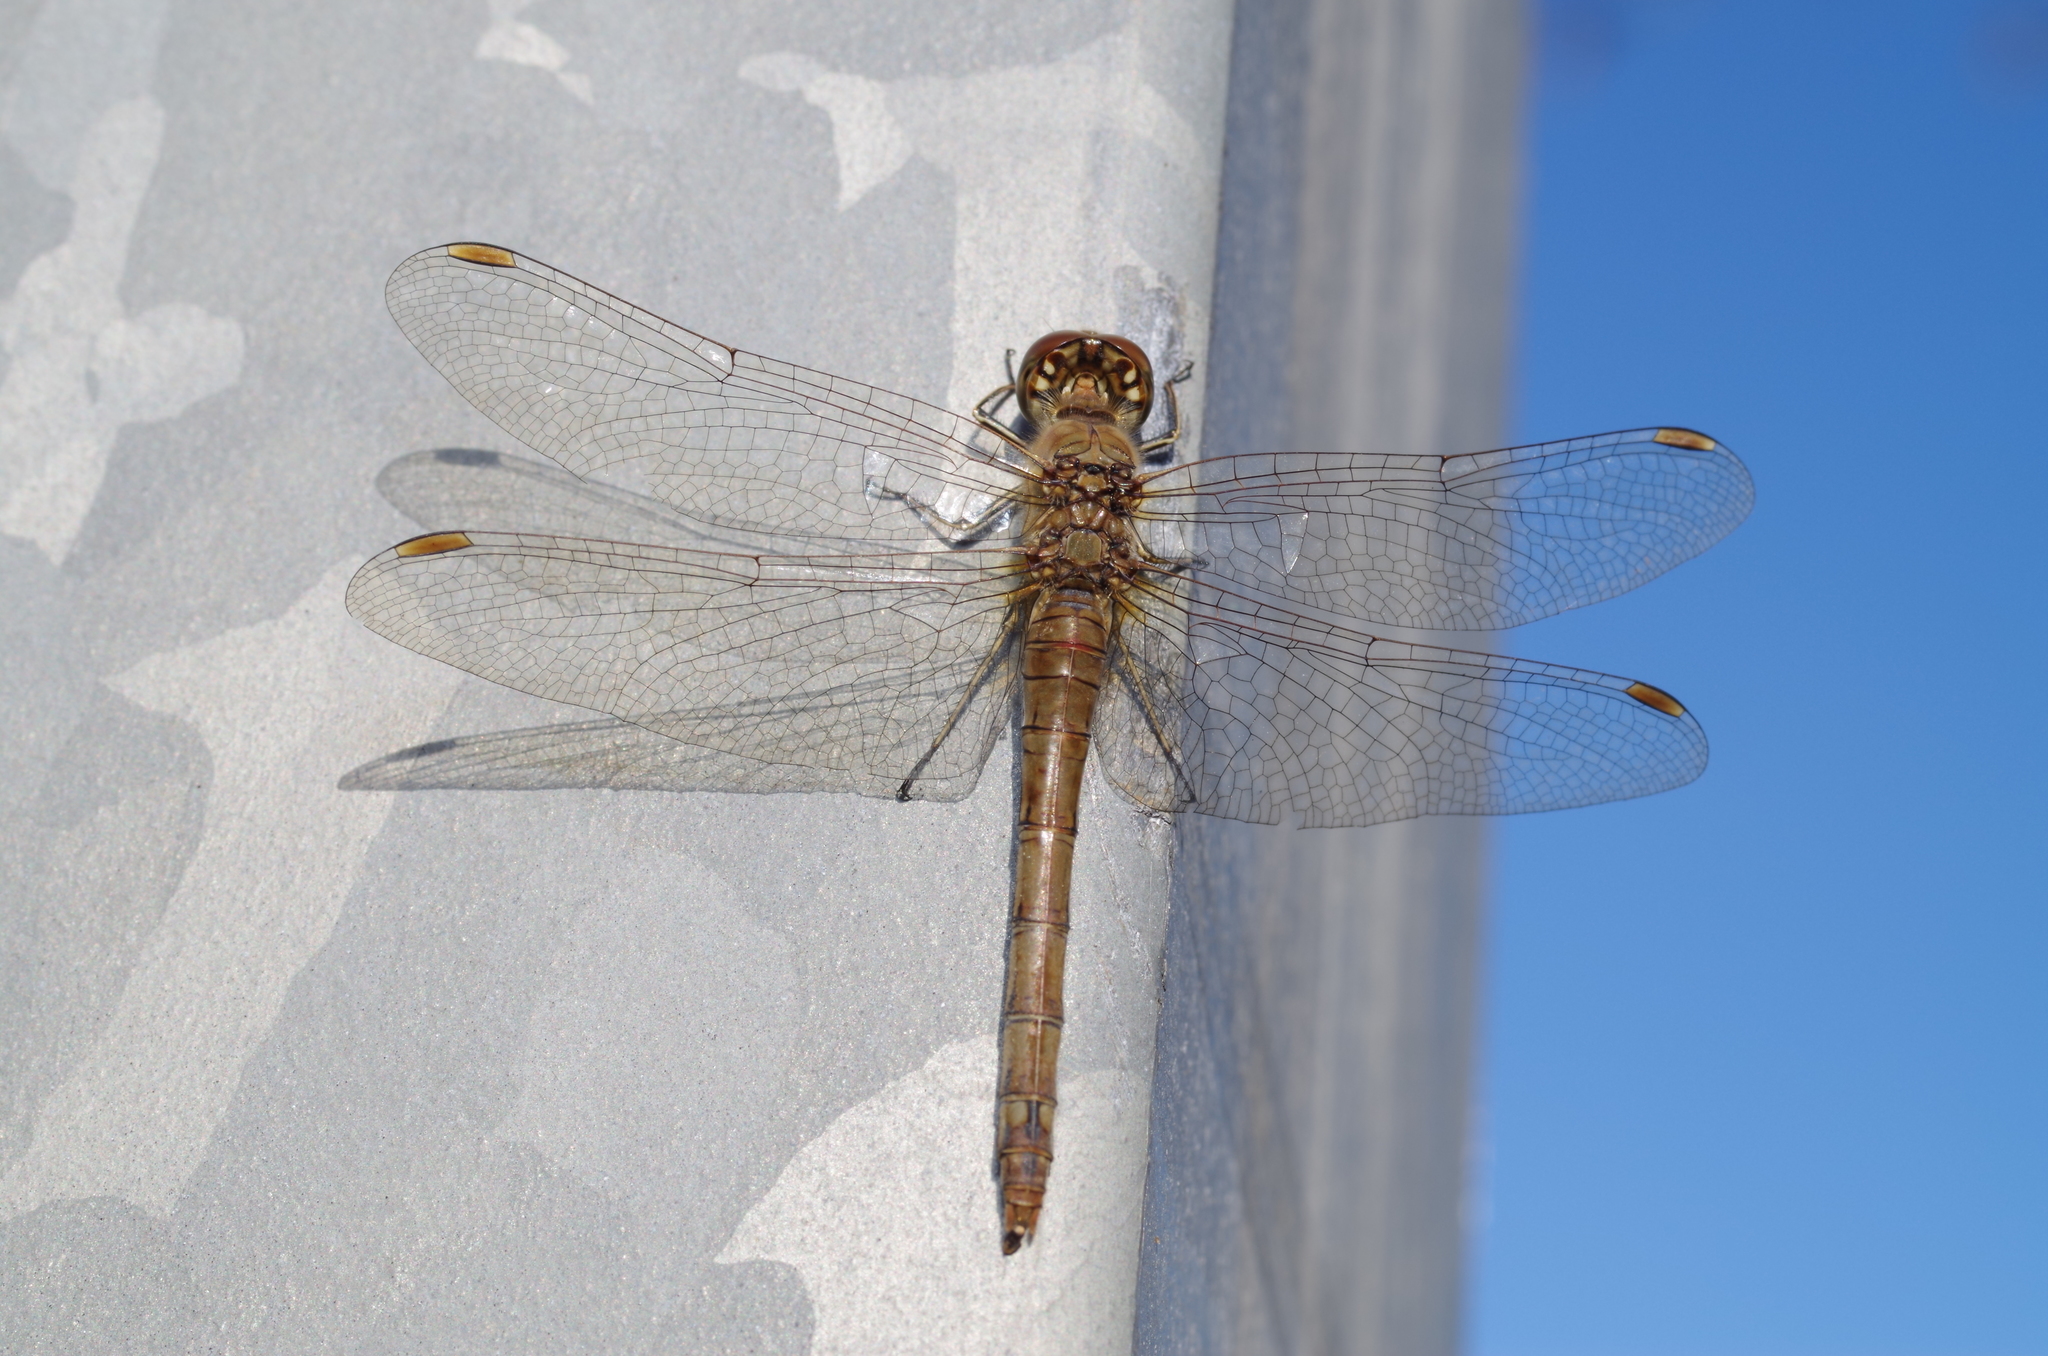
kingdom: Animalia
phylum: Arthropoda
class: Insecta
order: Odonata
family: Libellulidae
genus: Sympetrum
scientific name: Sympetrum striolatum
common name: Common darter
